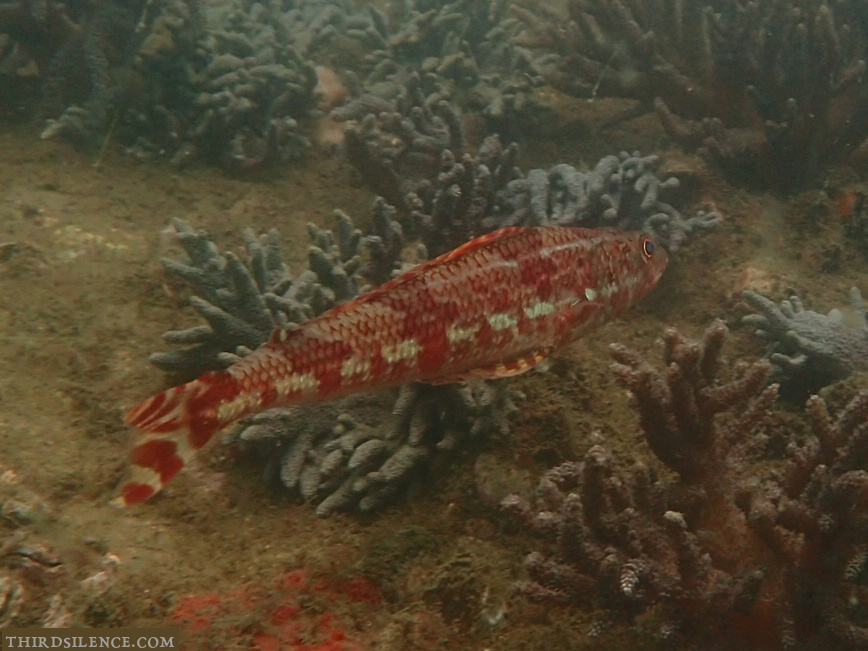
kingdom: Animalia
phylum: Chordata
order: Aulopiformes
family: Aulopidae
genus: Latropiscis
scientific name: Latropiscis purpurissatus
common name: Sergeant baker
